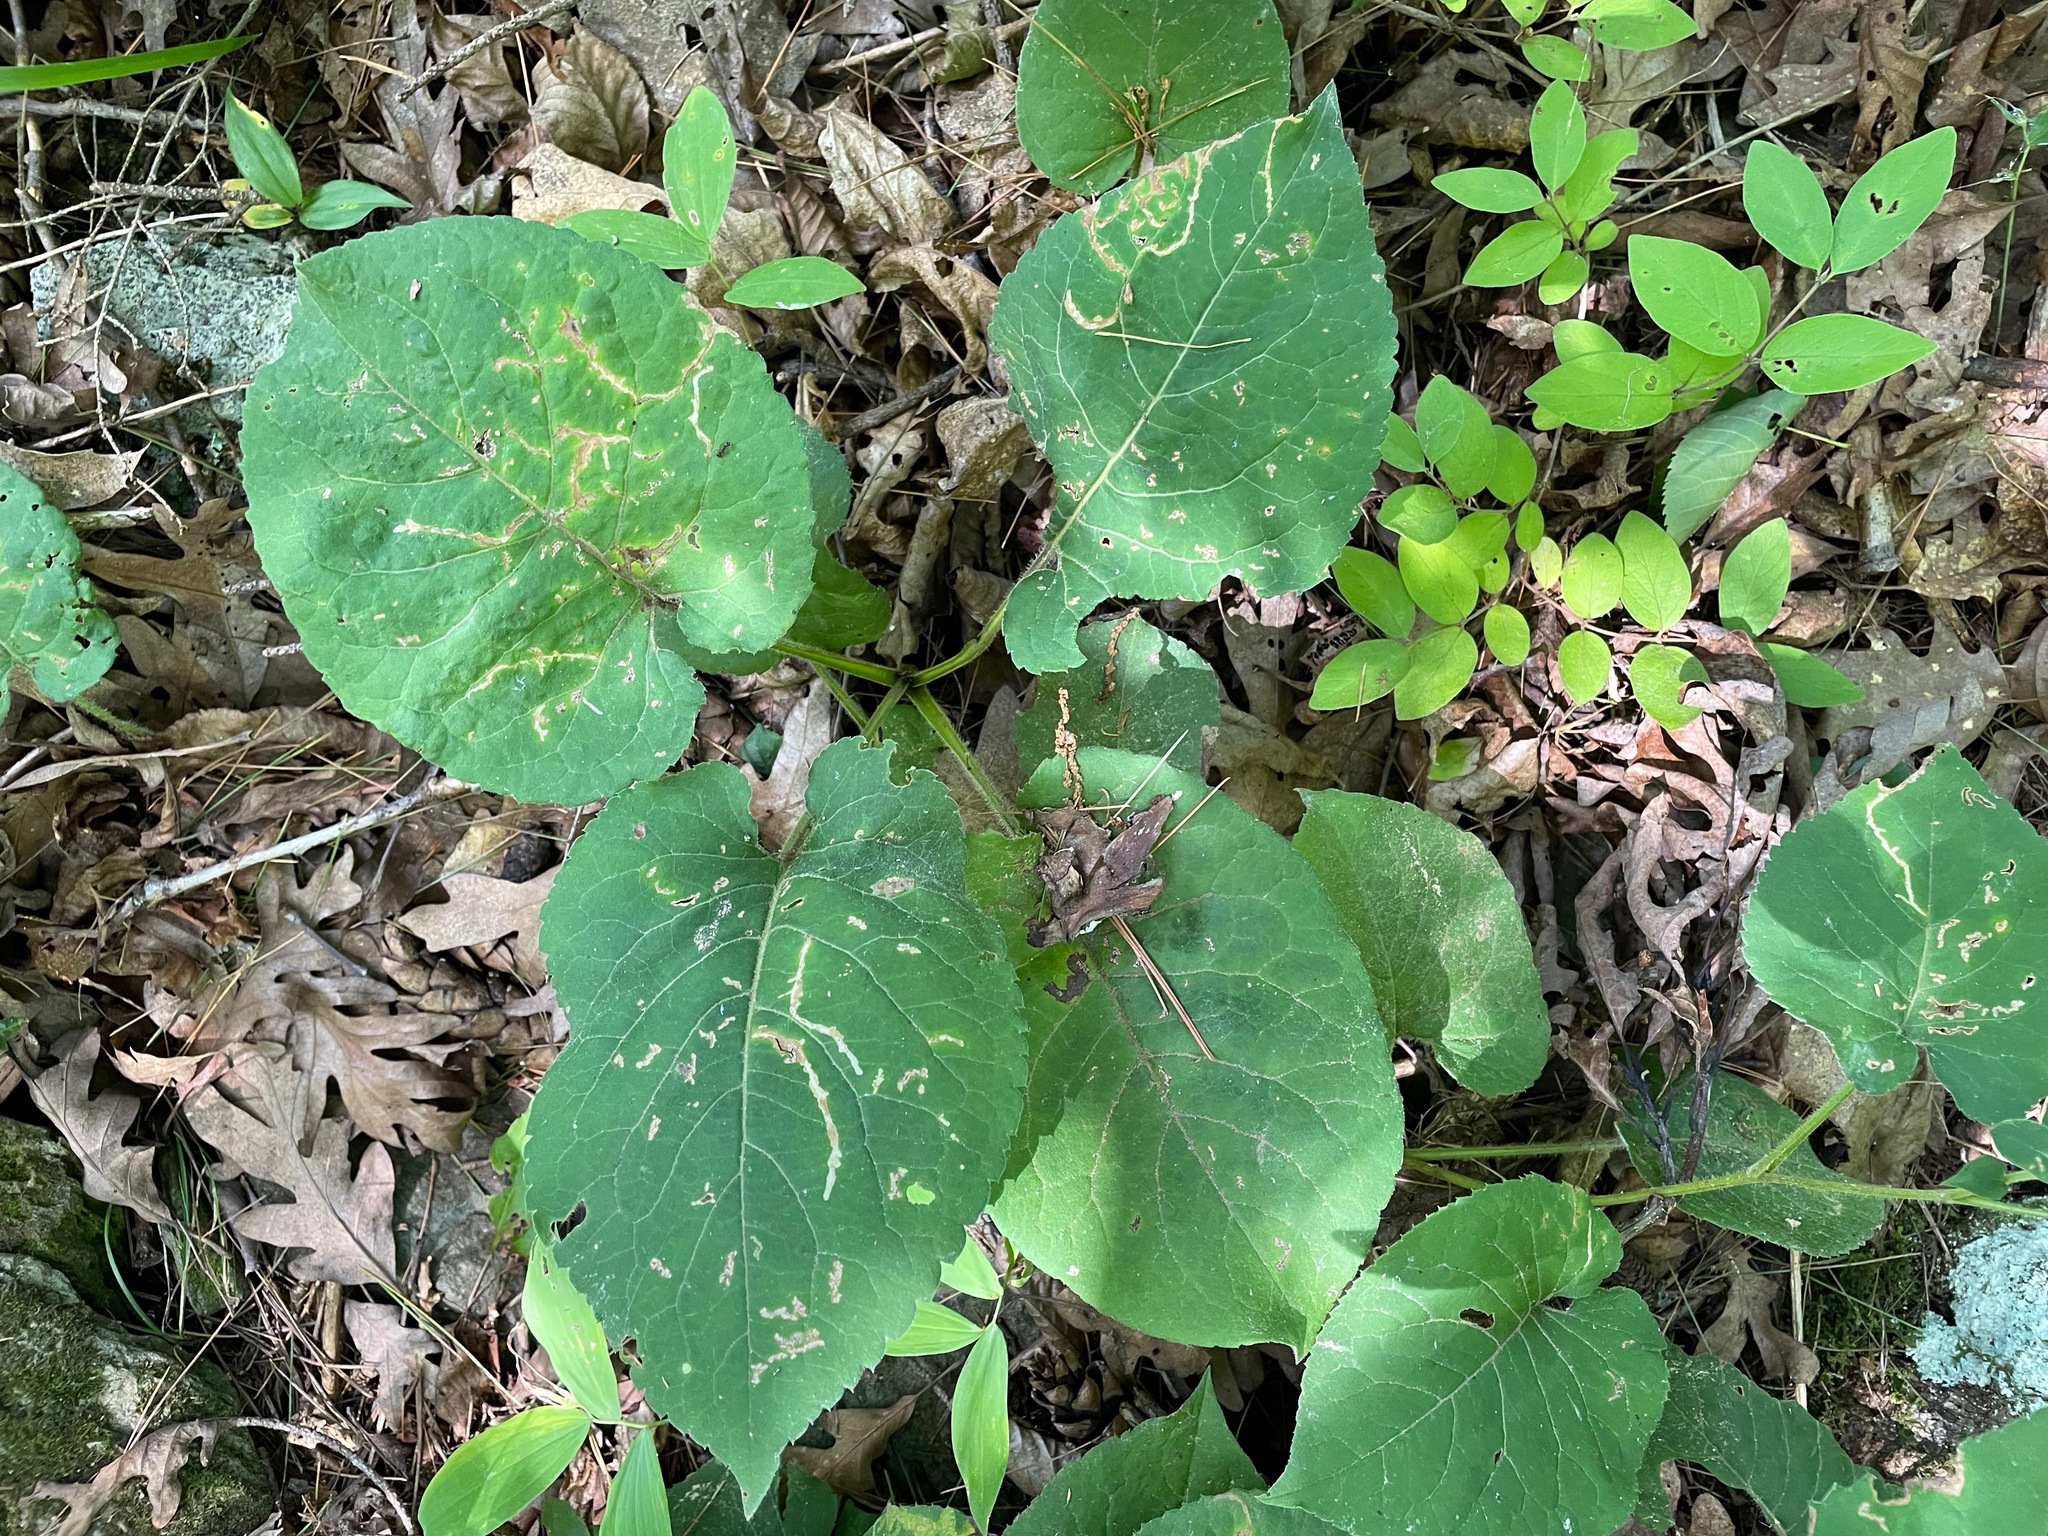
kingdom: Plantae
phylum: Tracheophyta
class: Magnoliopsida
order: Asterales
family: Asteraceae
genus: Eurybia
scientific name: Eurybia macrophylla
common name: Big-leaved aster
